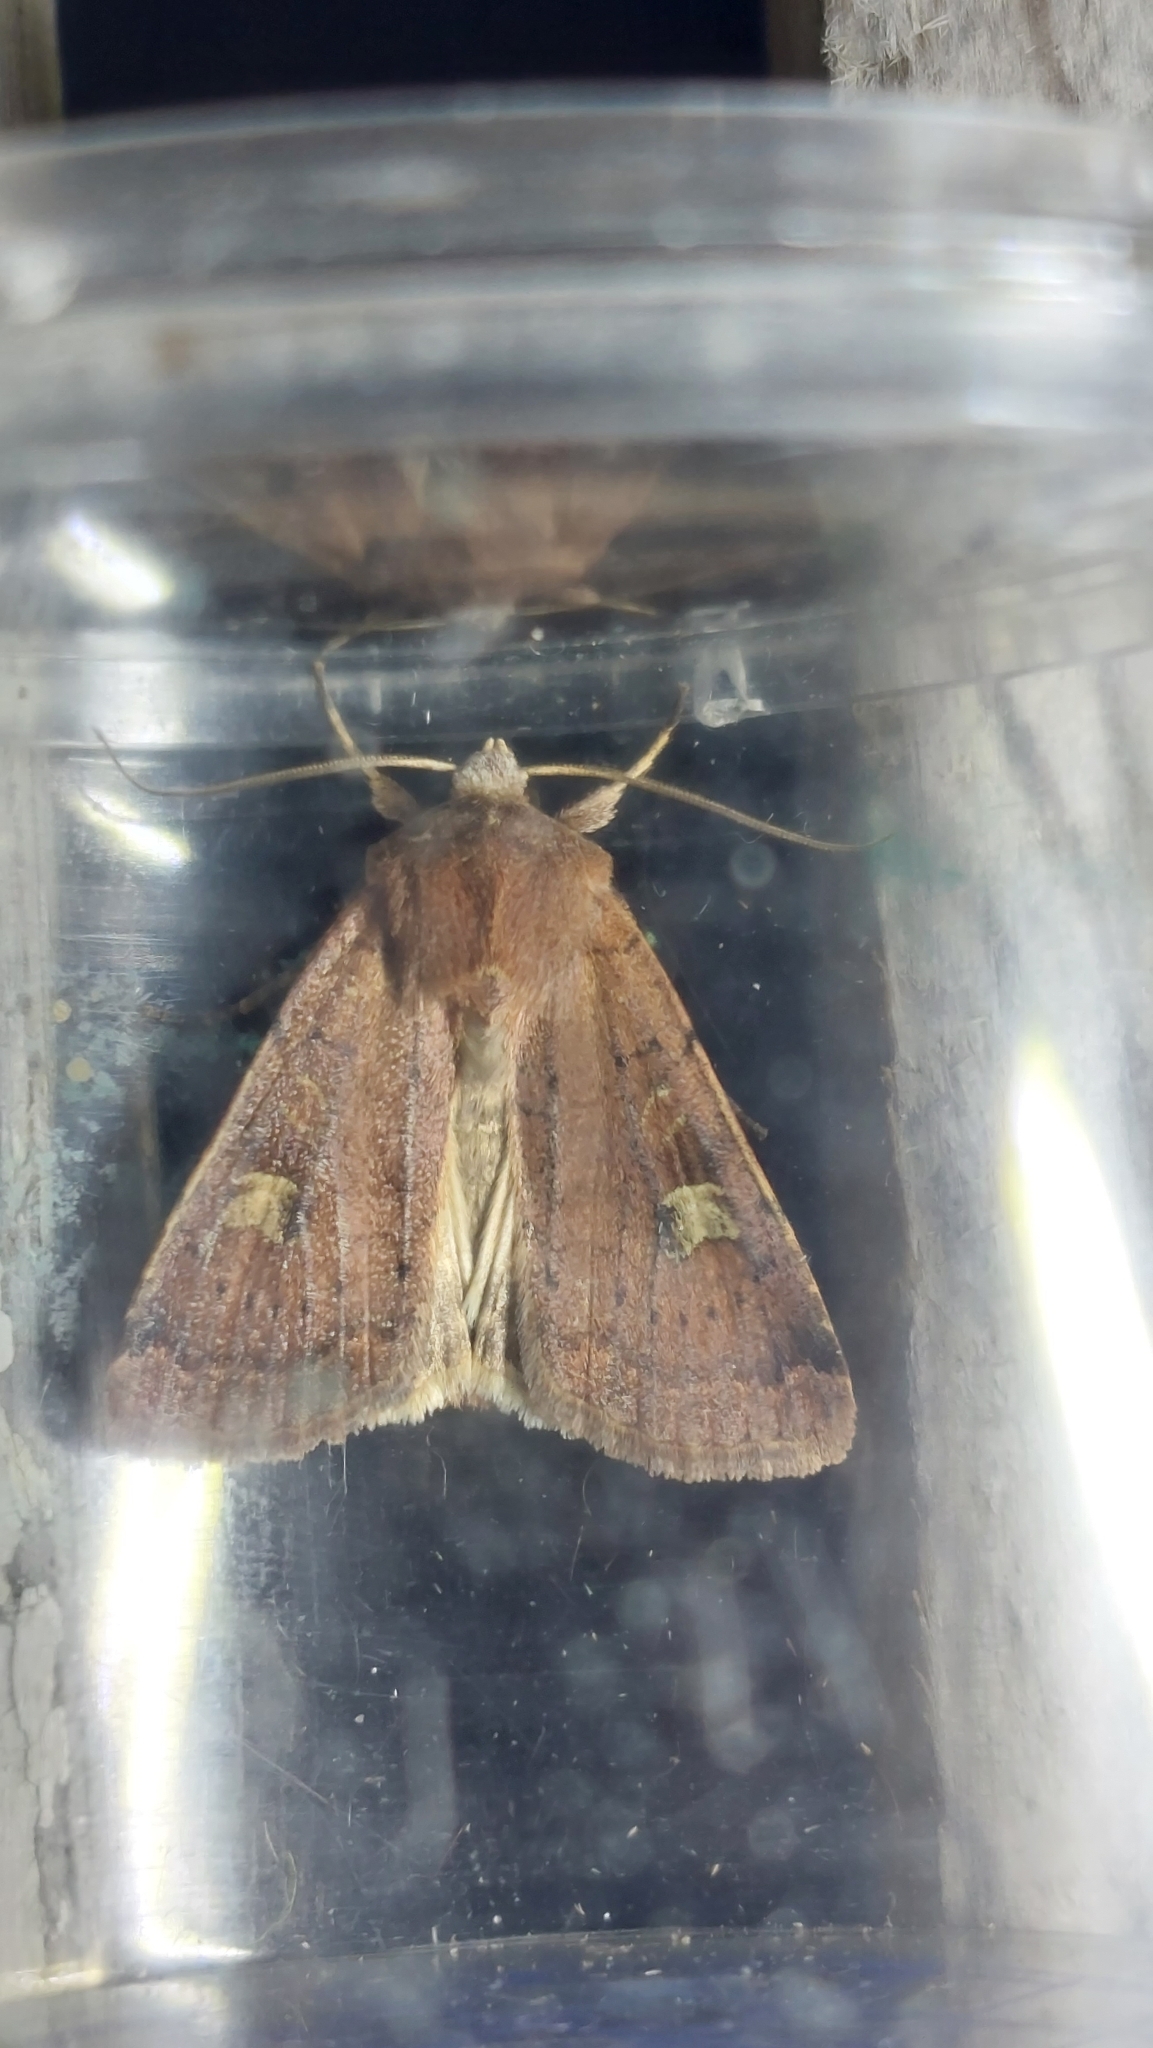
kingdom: Animalia
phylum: Arthropoda
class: Insecta
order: Lepidoptera
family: Noctuidae
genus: Xestia
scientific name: Xestia xanthographa
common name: Square-spot rustic
